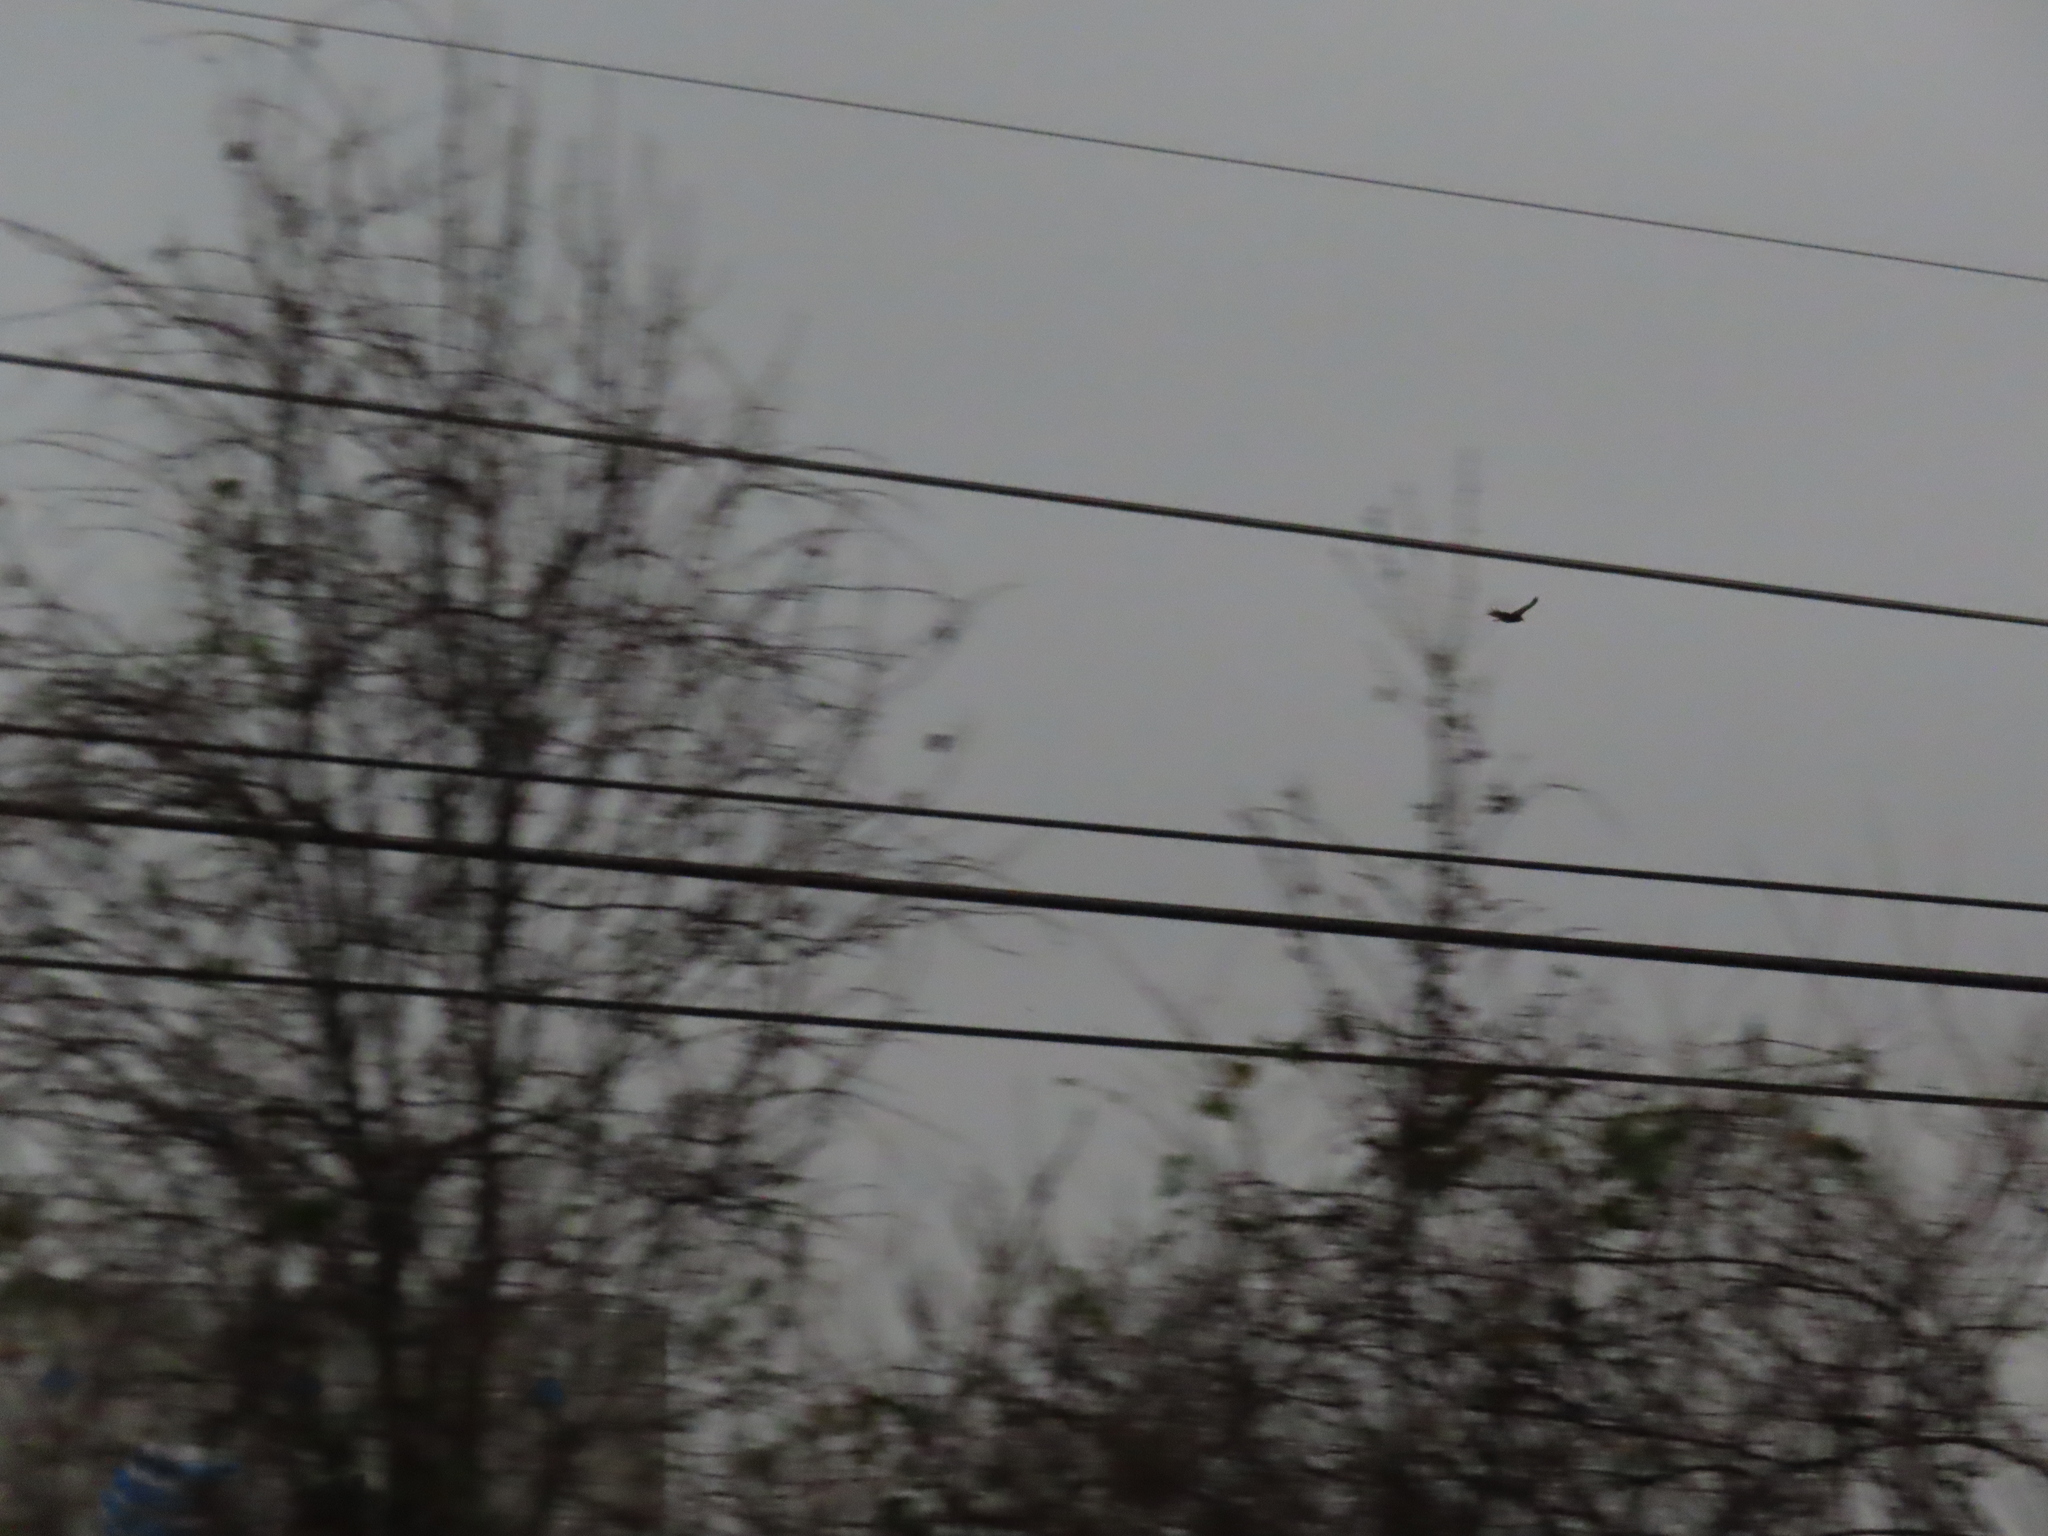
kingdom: Animalia
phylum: Chordata
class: Aves
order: Accipitriformes
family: Cathartidae
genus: Cathartes
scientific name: Cathartes aura
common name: Turkey vulture
